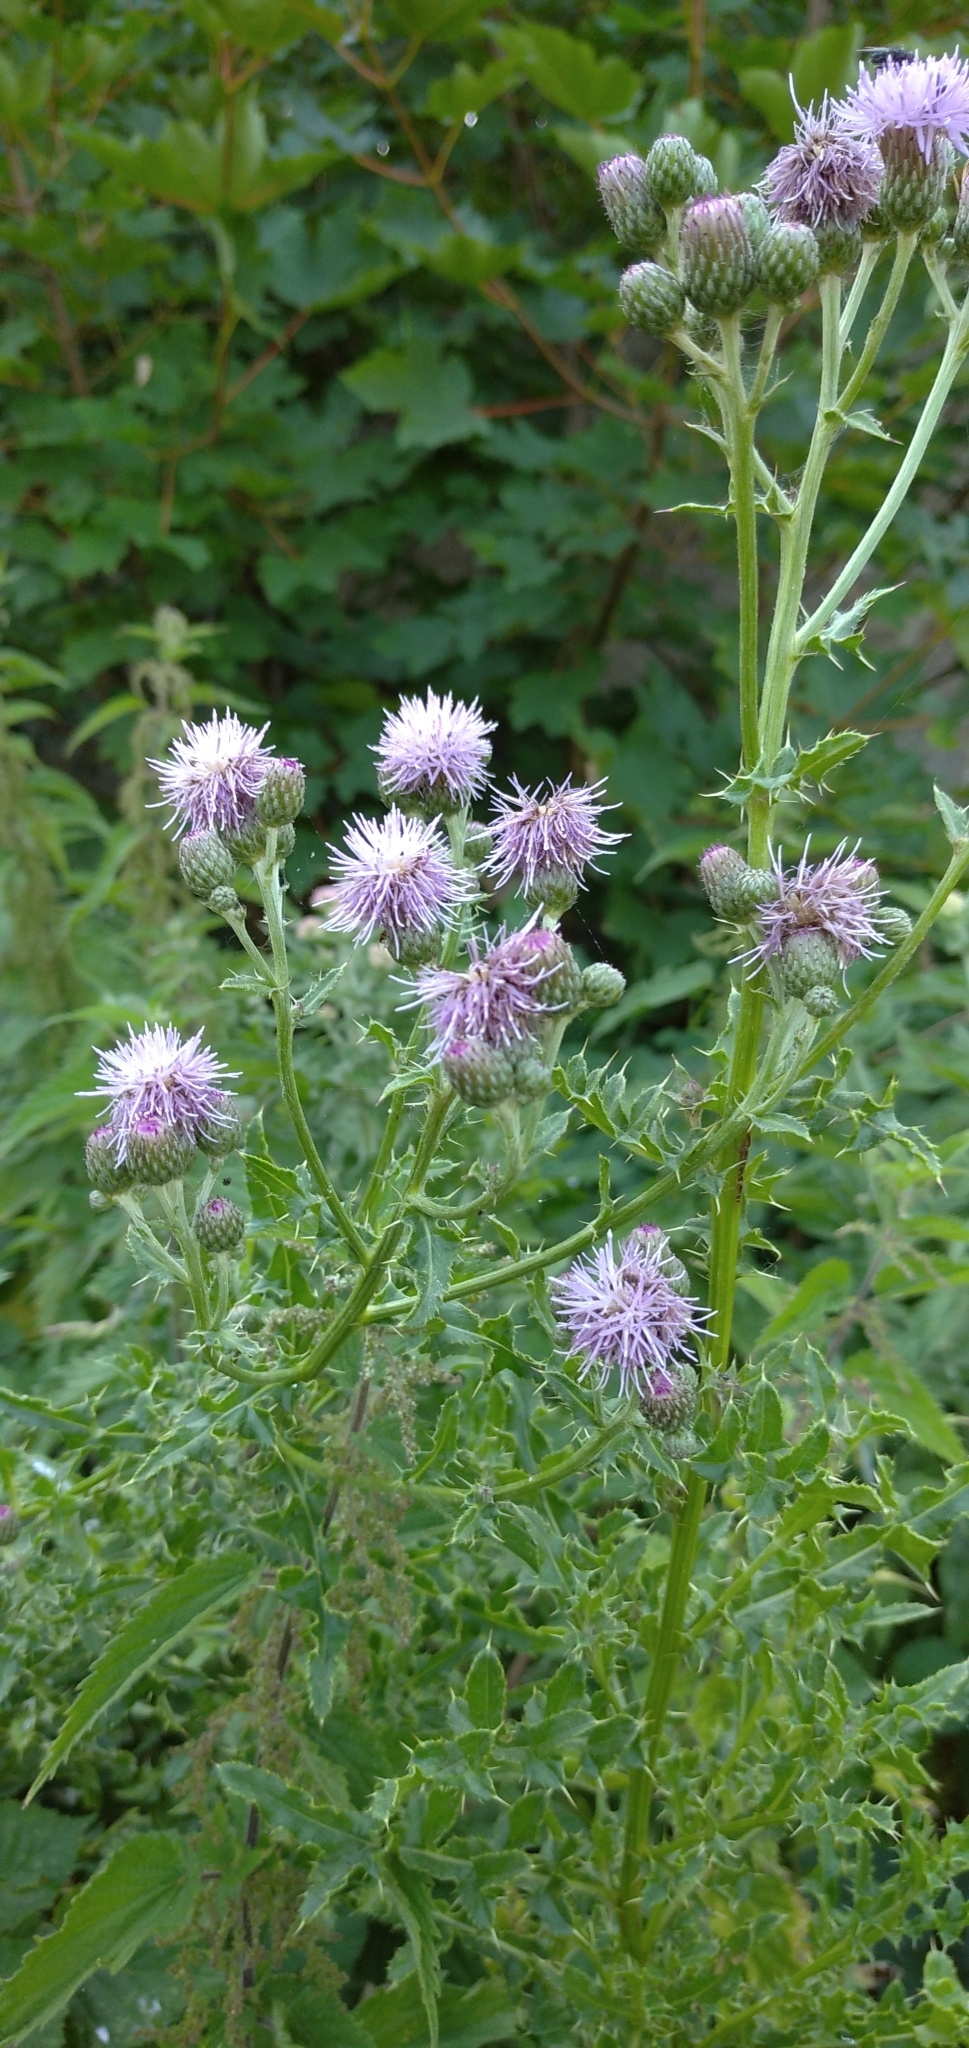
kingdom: Plantae
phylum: Tracheophyta
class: Magnoliopsida
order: Asterales
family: Asteraceae
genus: Cirsium
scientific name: Cirsium arvense
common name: Creeping thistle
